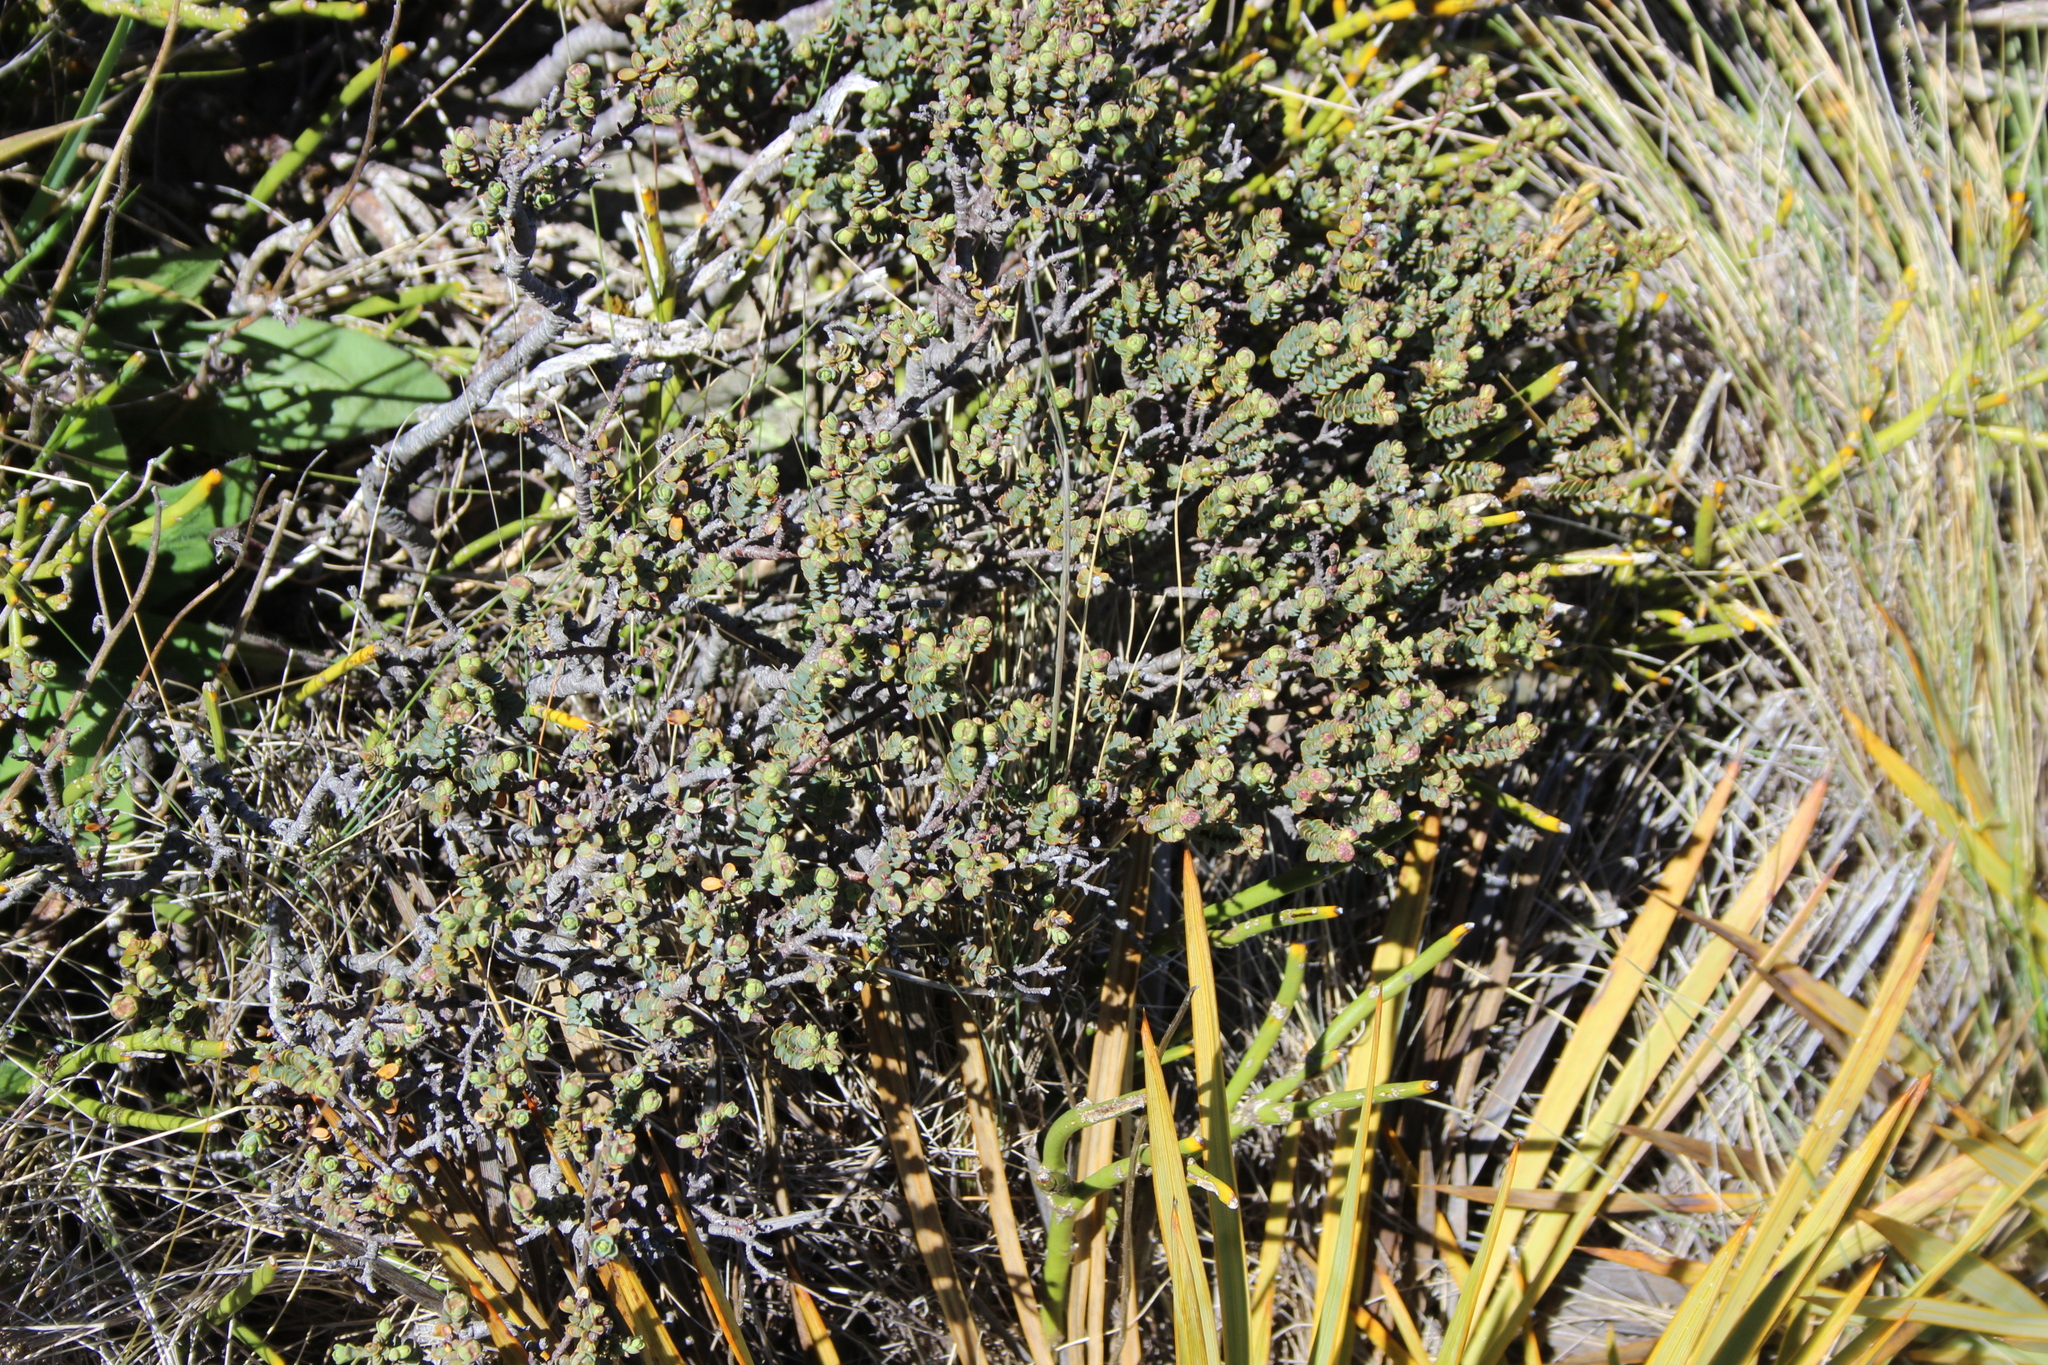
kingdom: Plantae
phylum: Tracheophyta
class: Magnoliopsida
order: Malvales
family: Thymelaeaceae
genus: Pimelea
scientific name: Pimelea traversii
